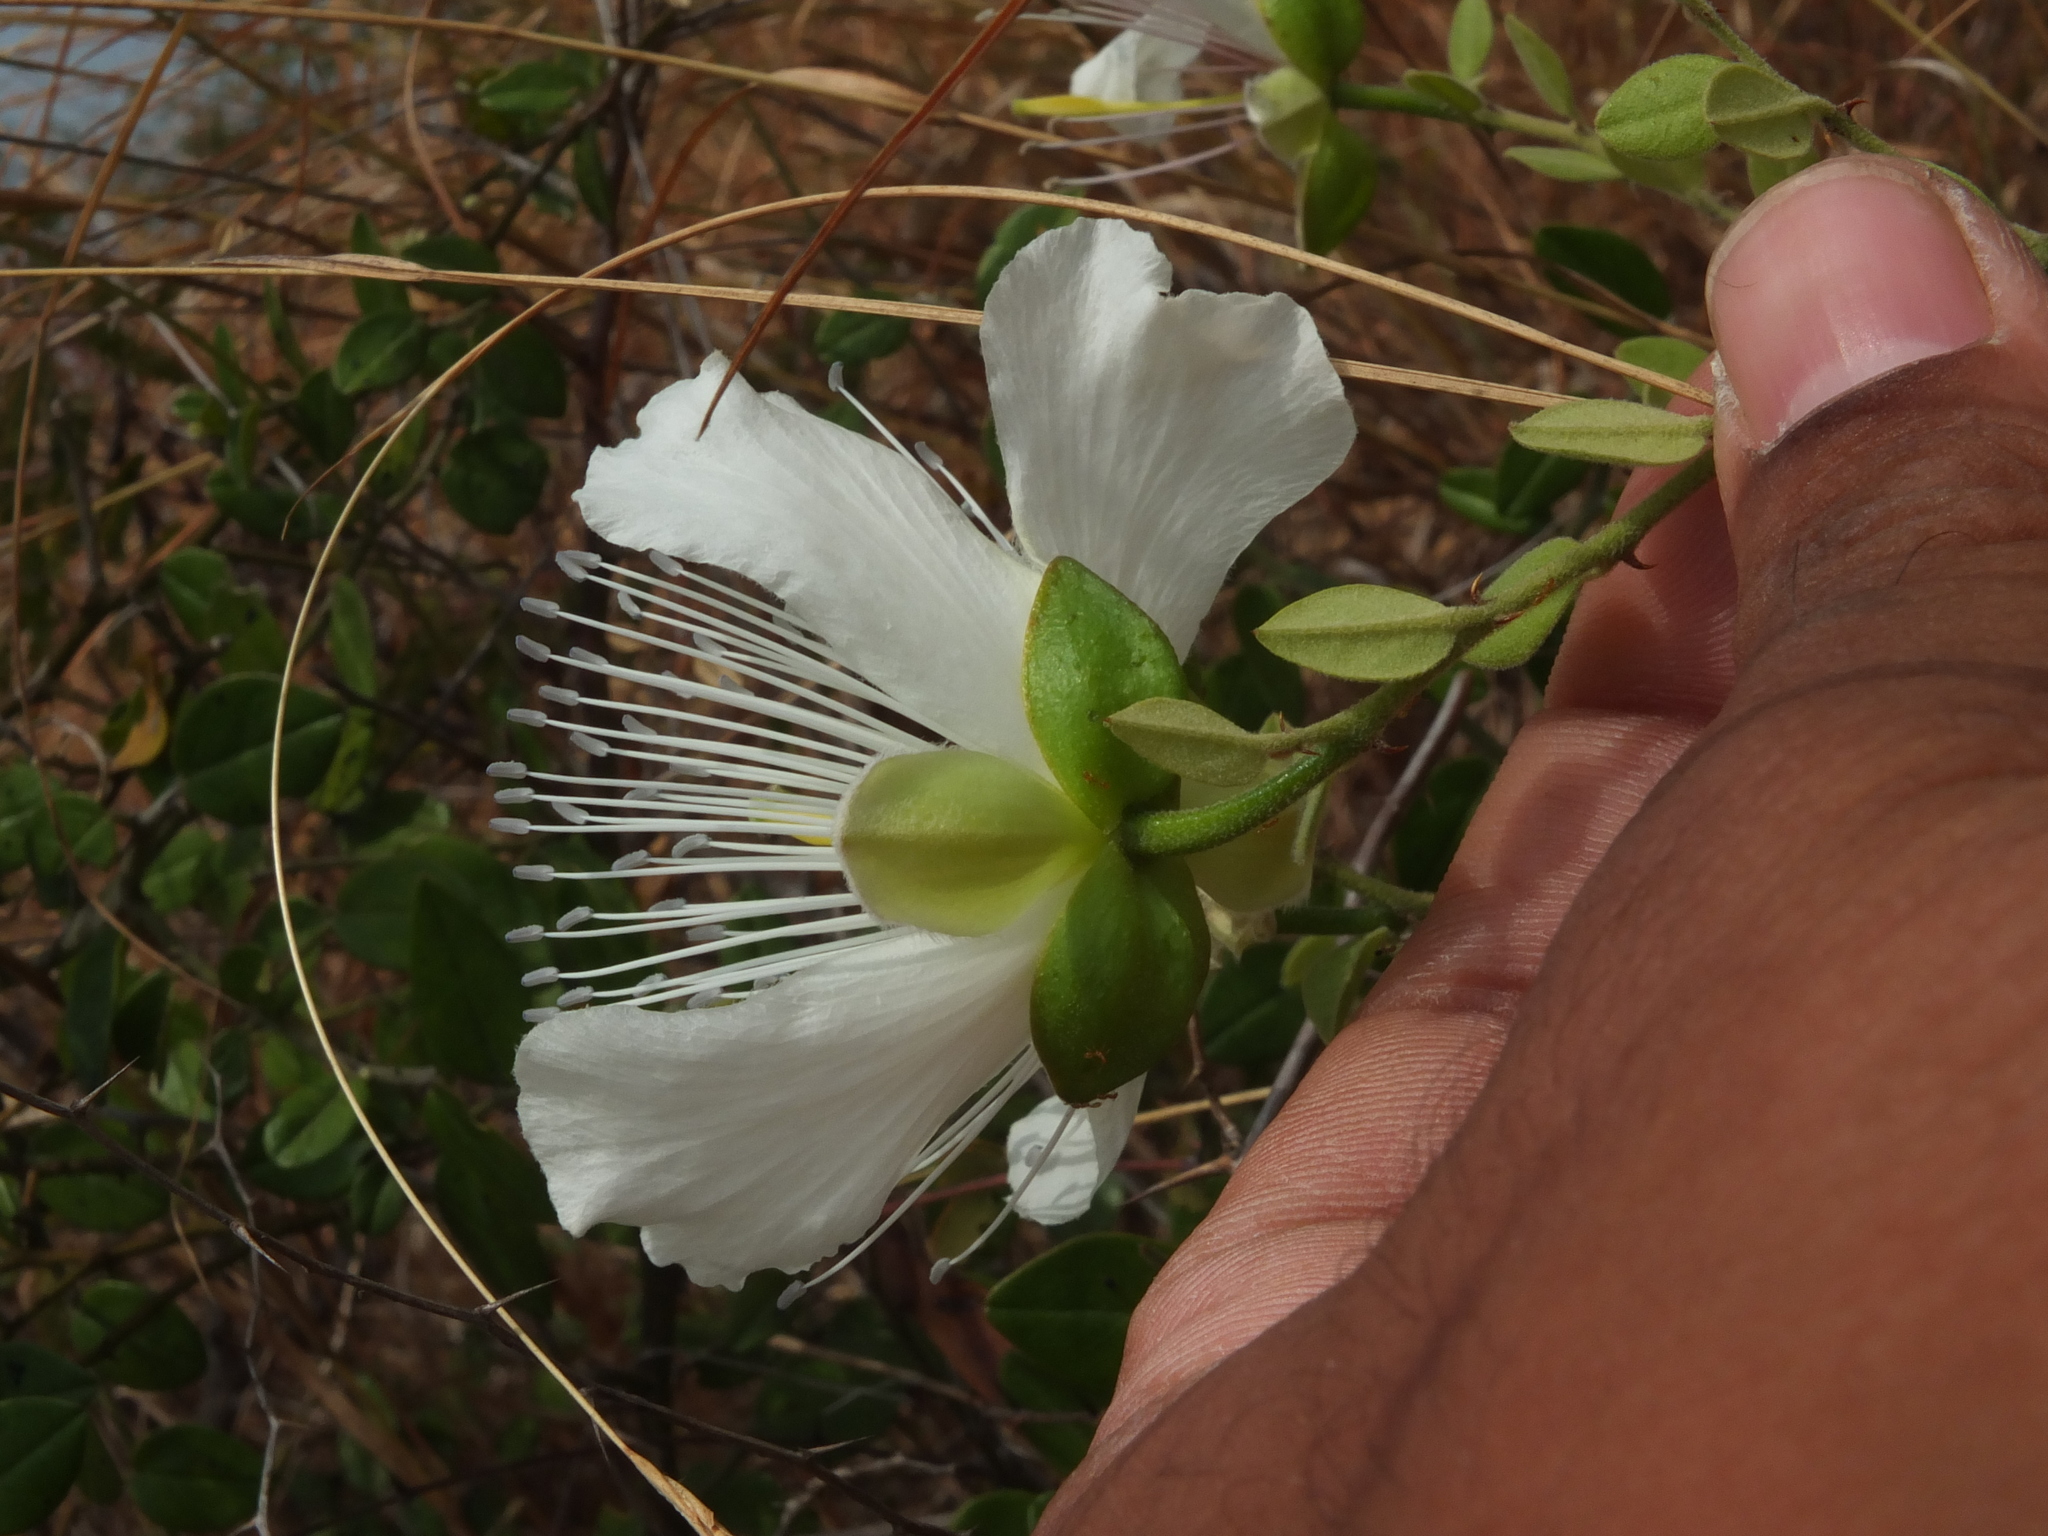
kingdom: Plantae
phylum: Tracheophyta
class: Magnoliopsida
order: Brassicales
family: Capparaceae
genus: Capparis
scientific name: Capparis grandiflora
